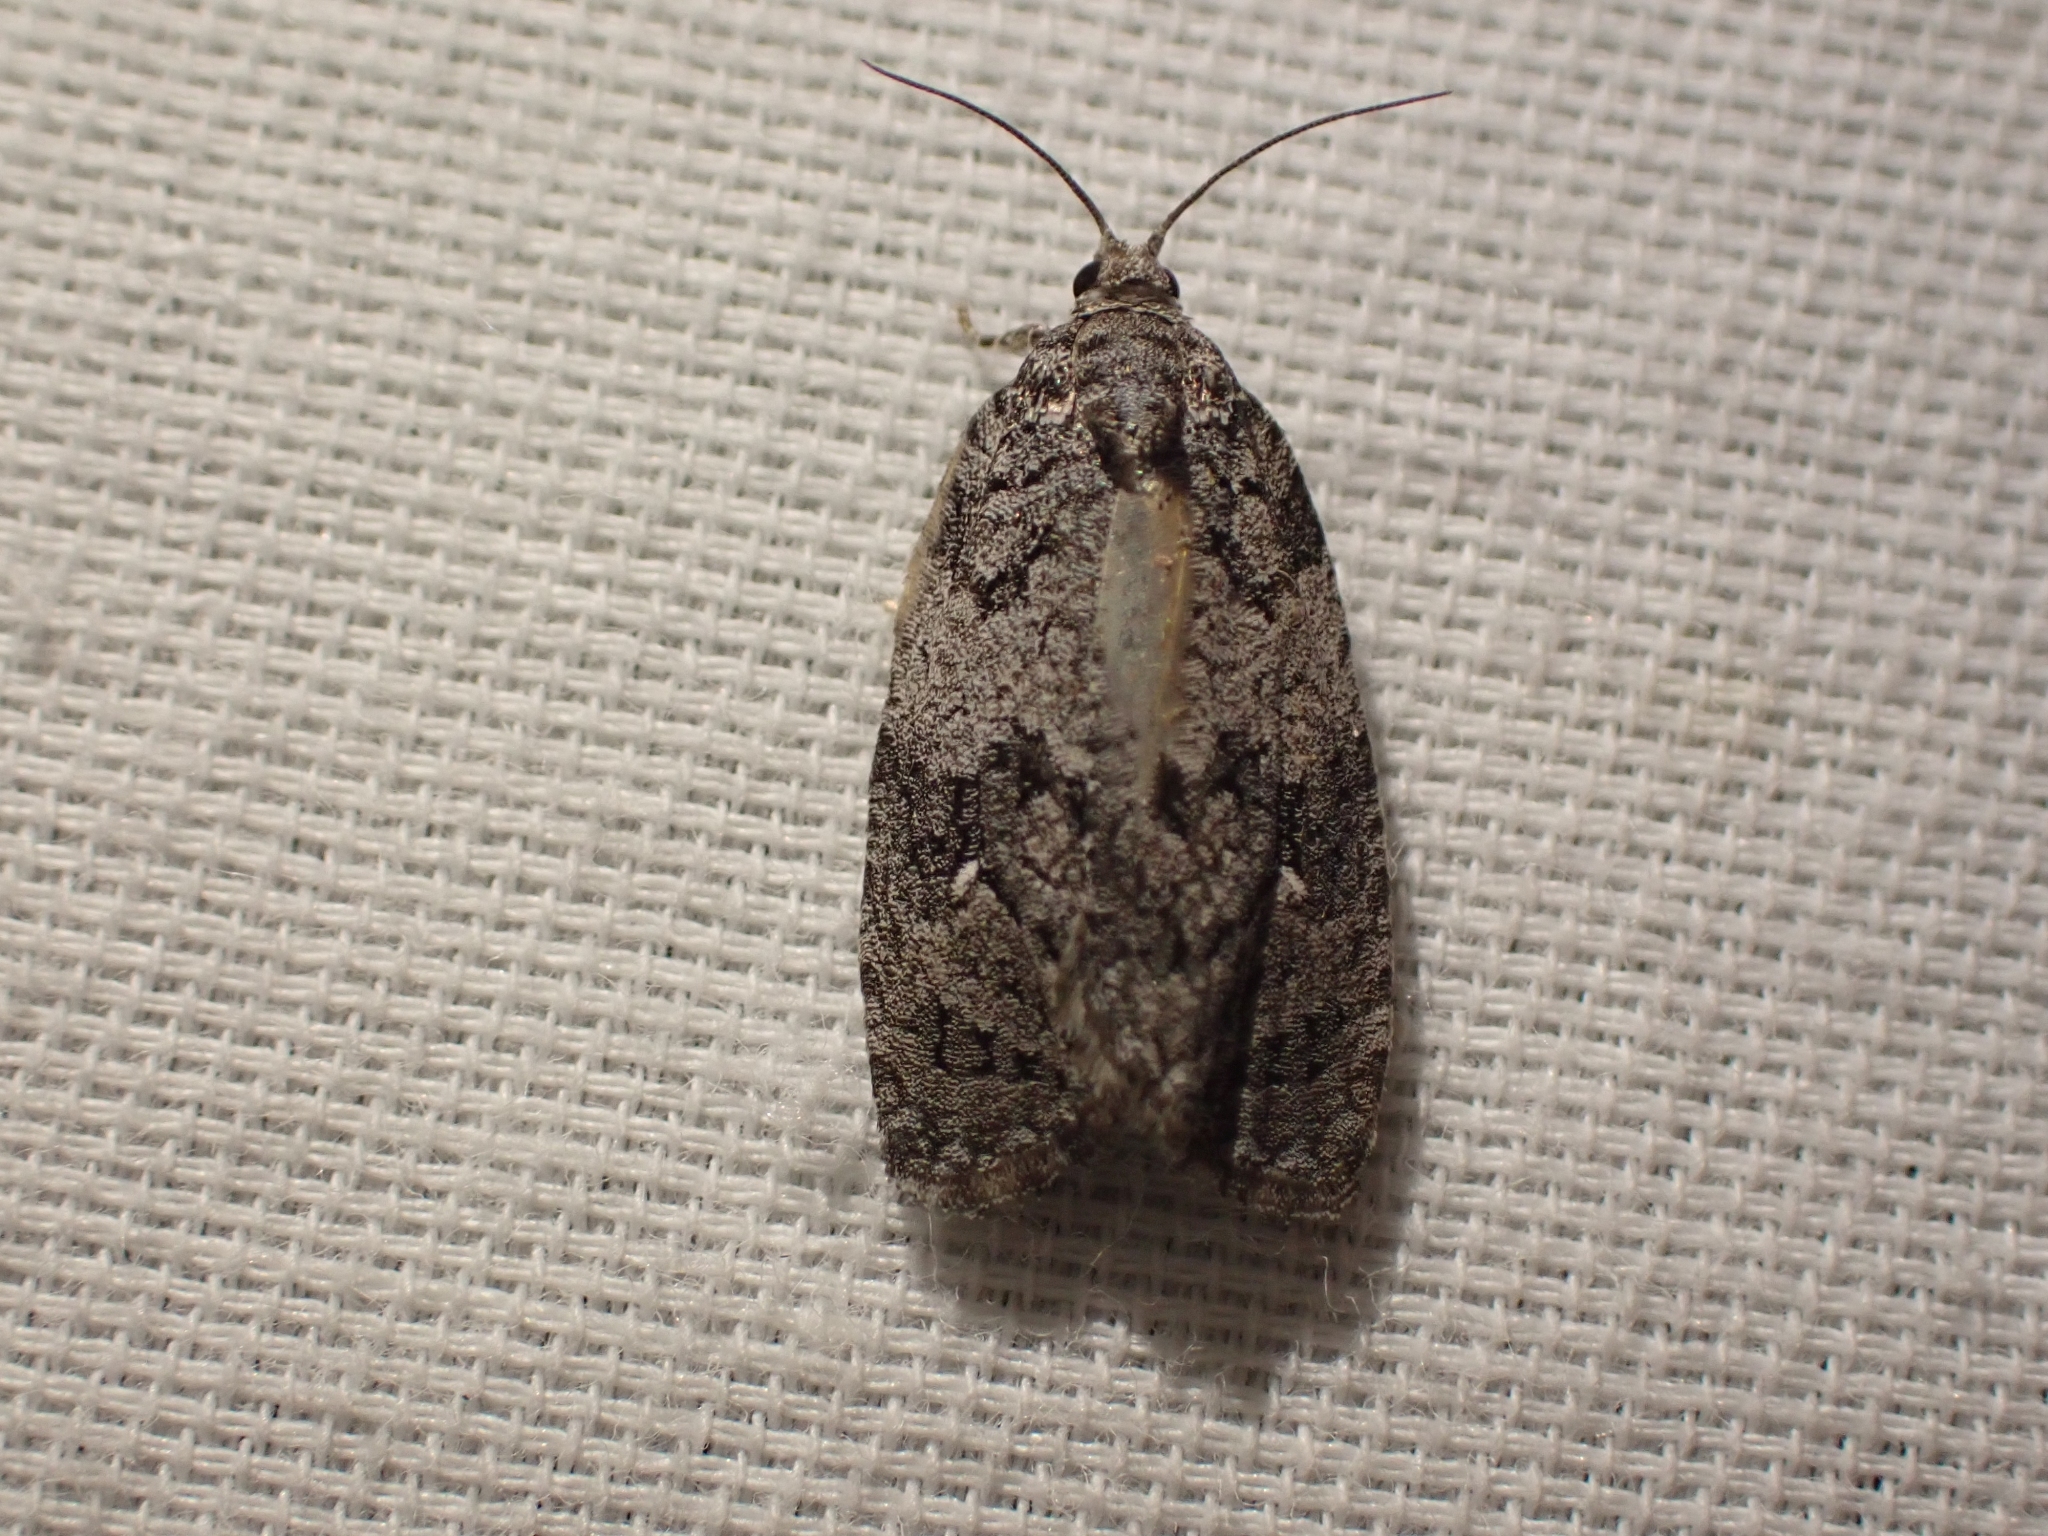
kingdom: Animalia
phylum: Arthropoda
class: Insecta
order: Lepidoptera
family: Tortricidae
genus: Apotomis
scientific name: Apotomis removana
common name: Green aspen leafroller
